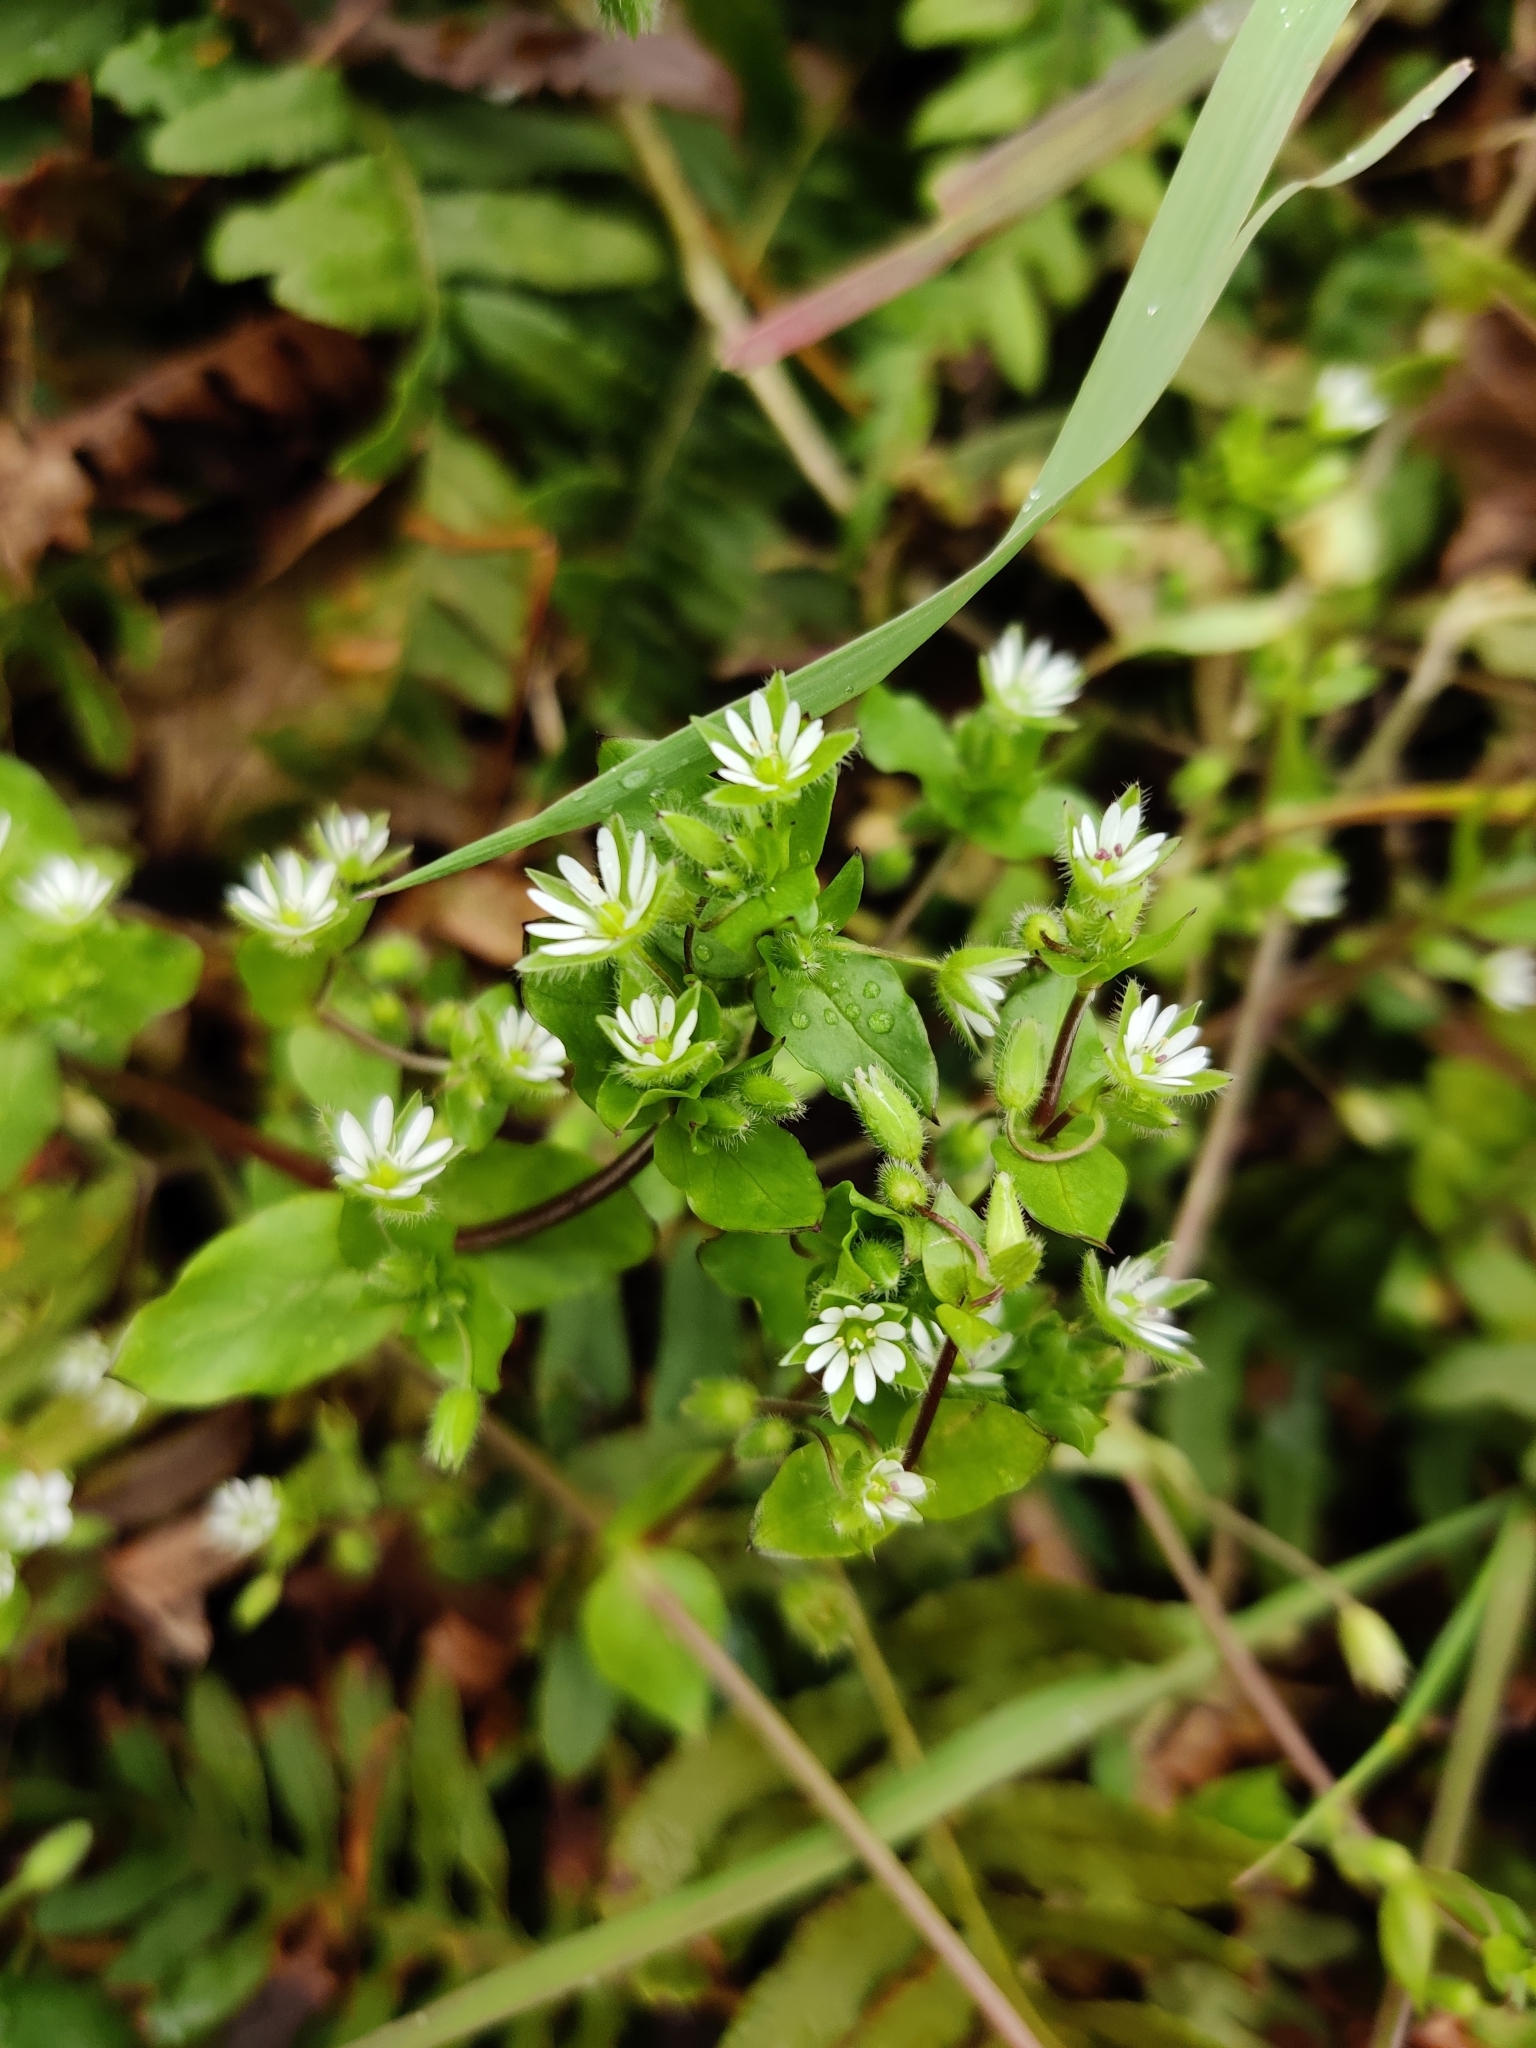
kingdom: Plantae
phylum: Tracheophyta
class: Magnoliopsida
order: Caryophyllales
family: Caryophyllaceae
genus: Stellaria
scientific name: Stellaria media
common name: Common chickweed
